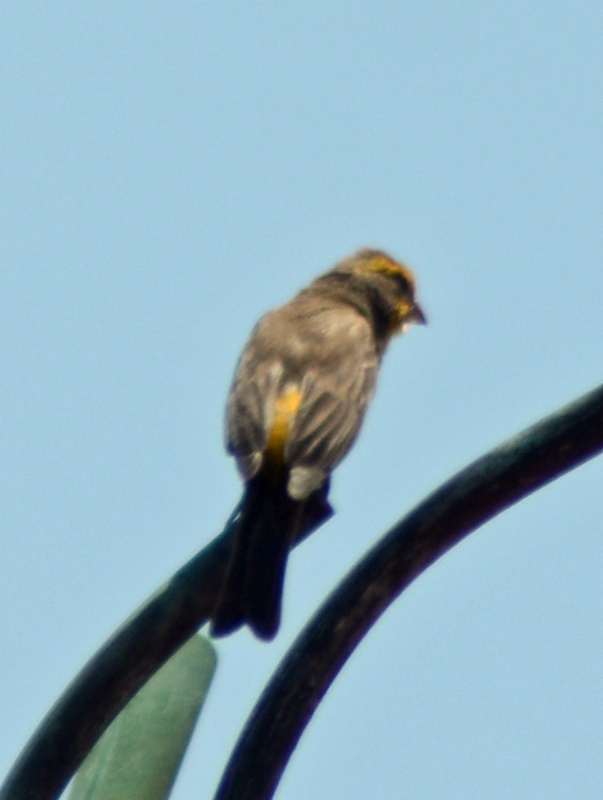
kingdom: Animalia
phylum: Chordata
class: Aves
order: Passeriformes
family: Fringillidae
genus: Haemorhous
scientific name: Haemorhous mexicanus
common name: House finch
